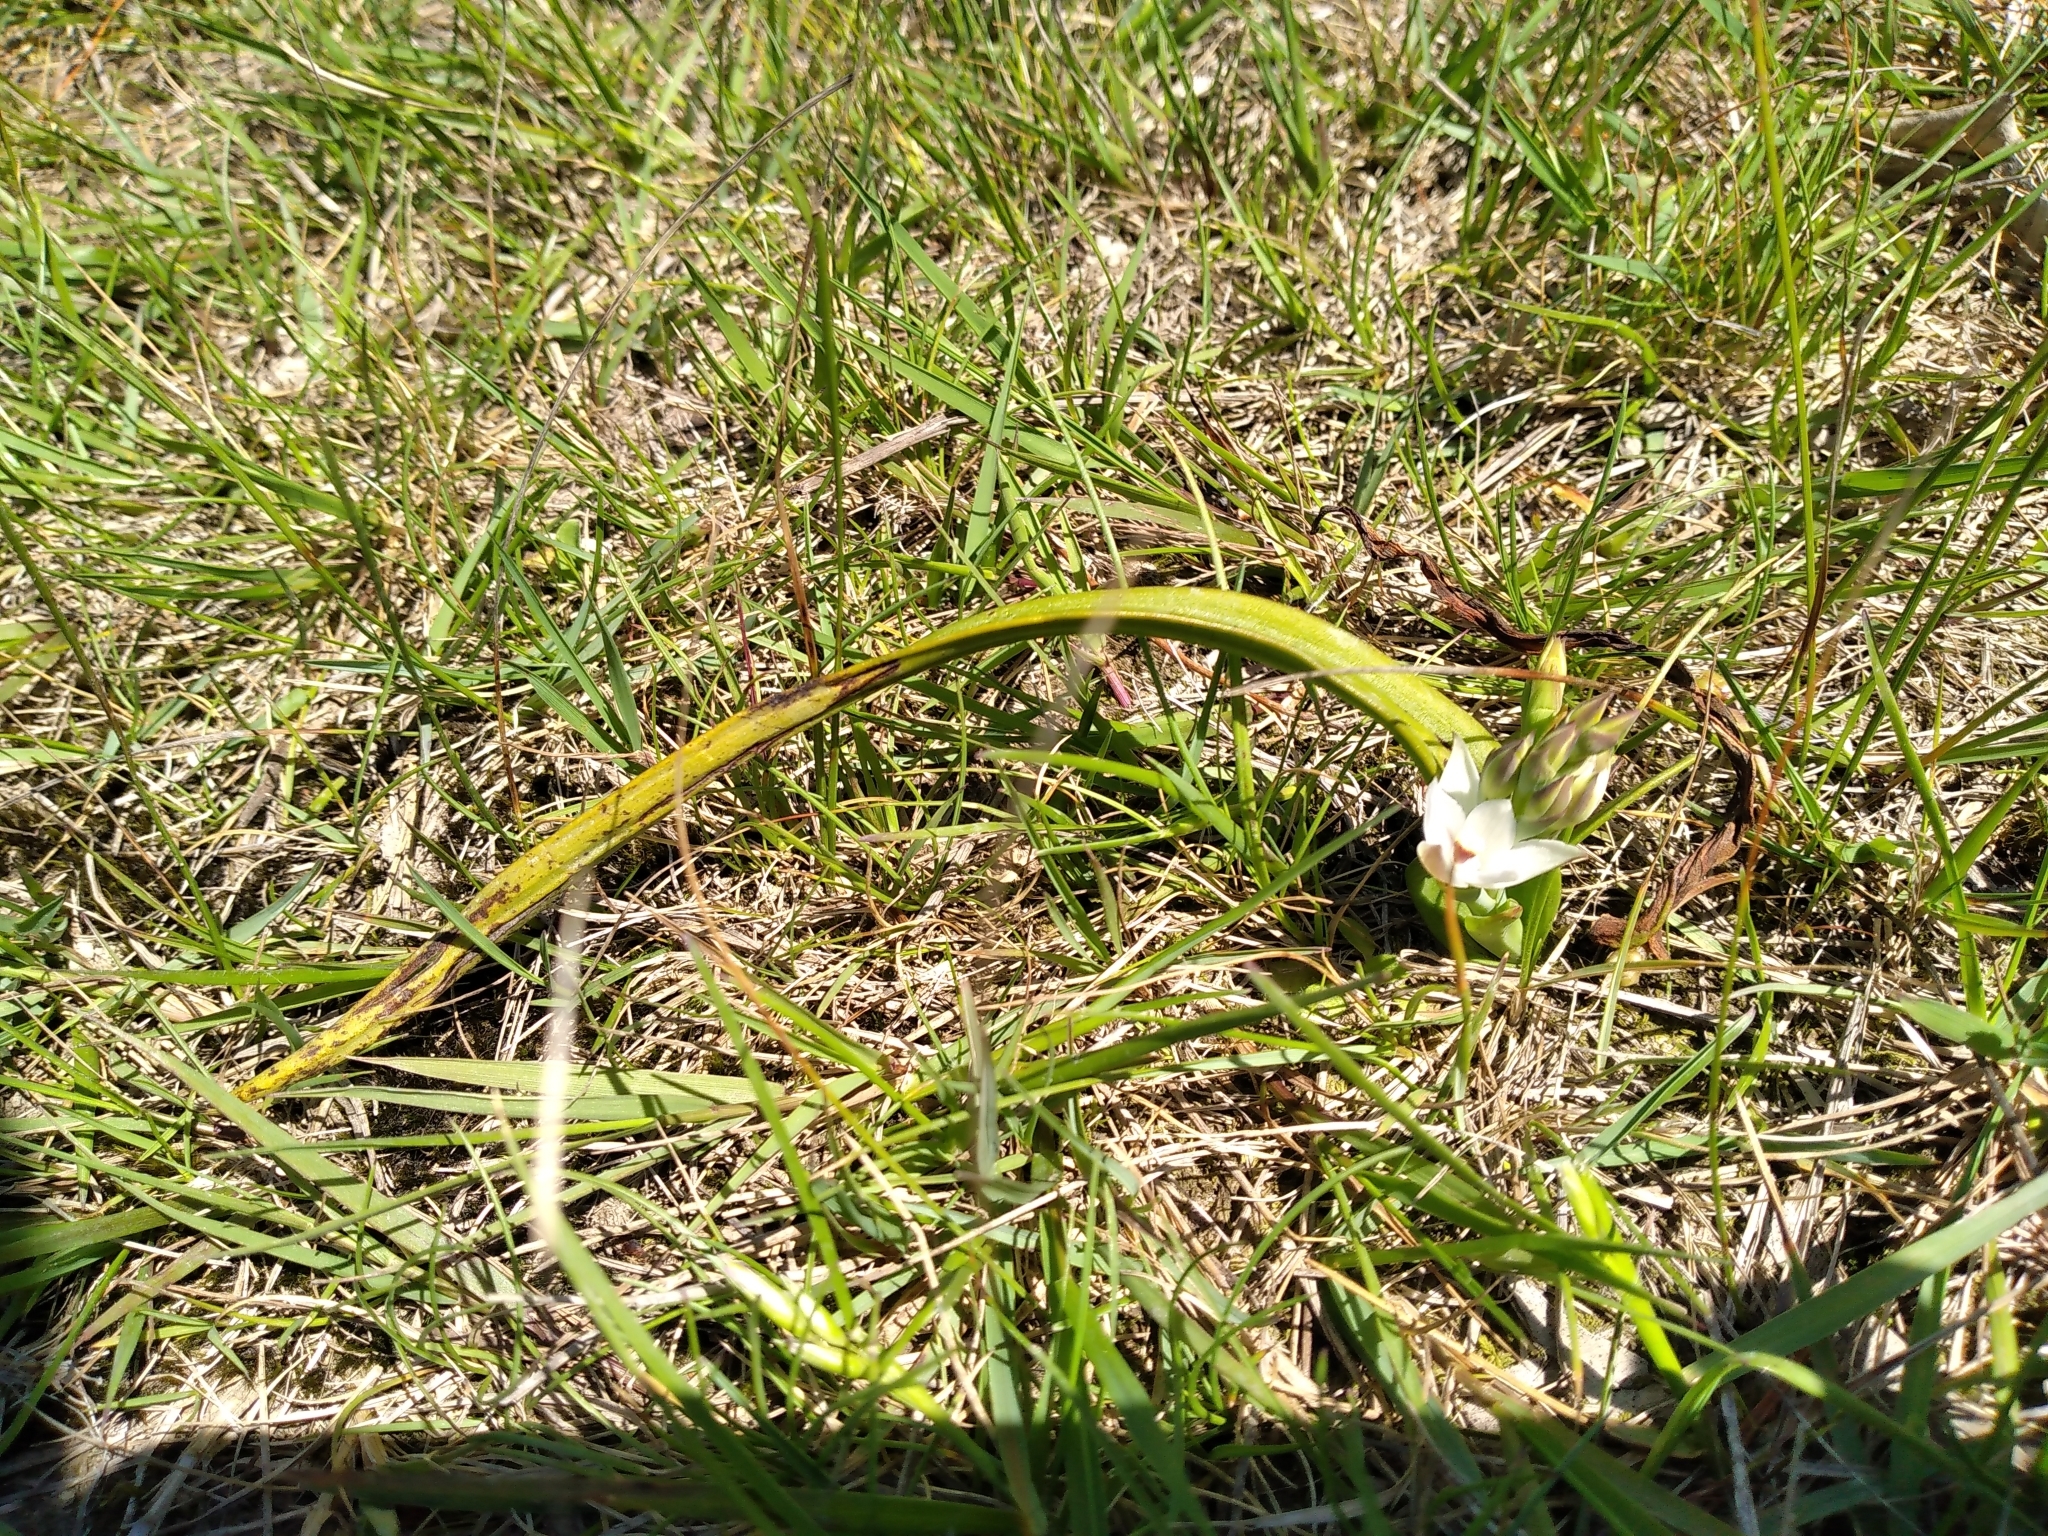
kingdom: Plantae
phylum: Tracheophyta
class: Liliopsida
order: Asparagales
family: Orchidaceae
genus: Thelymitra
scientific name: Thelymitra longifolia
